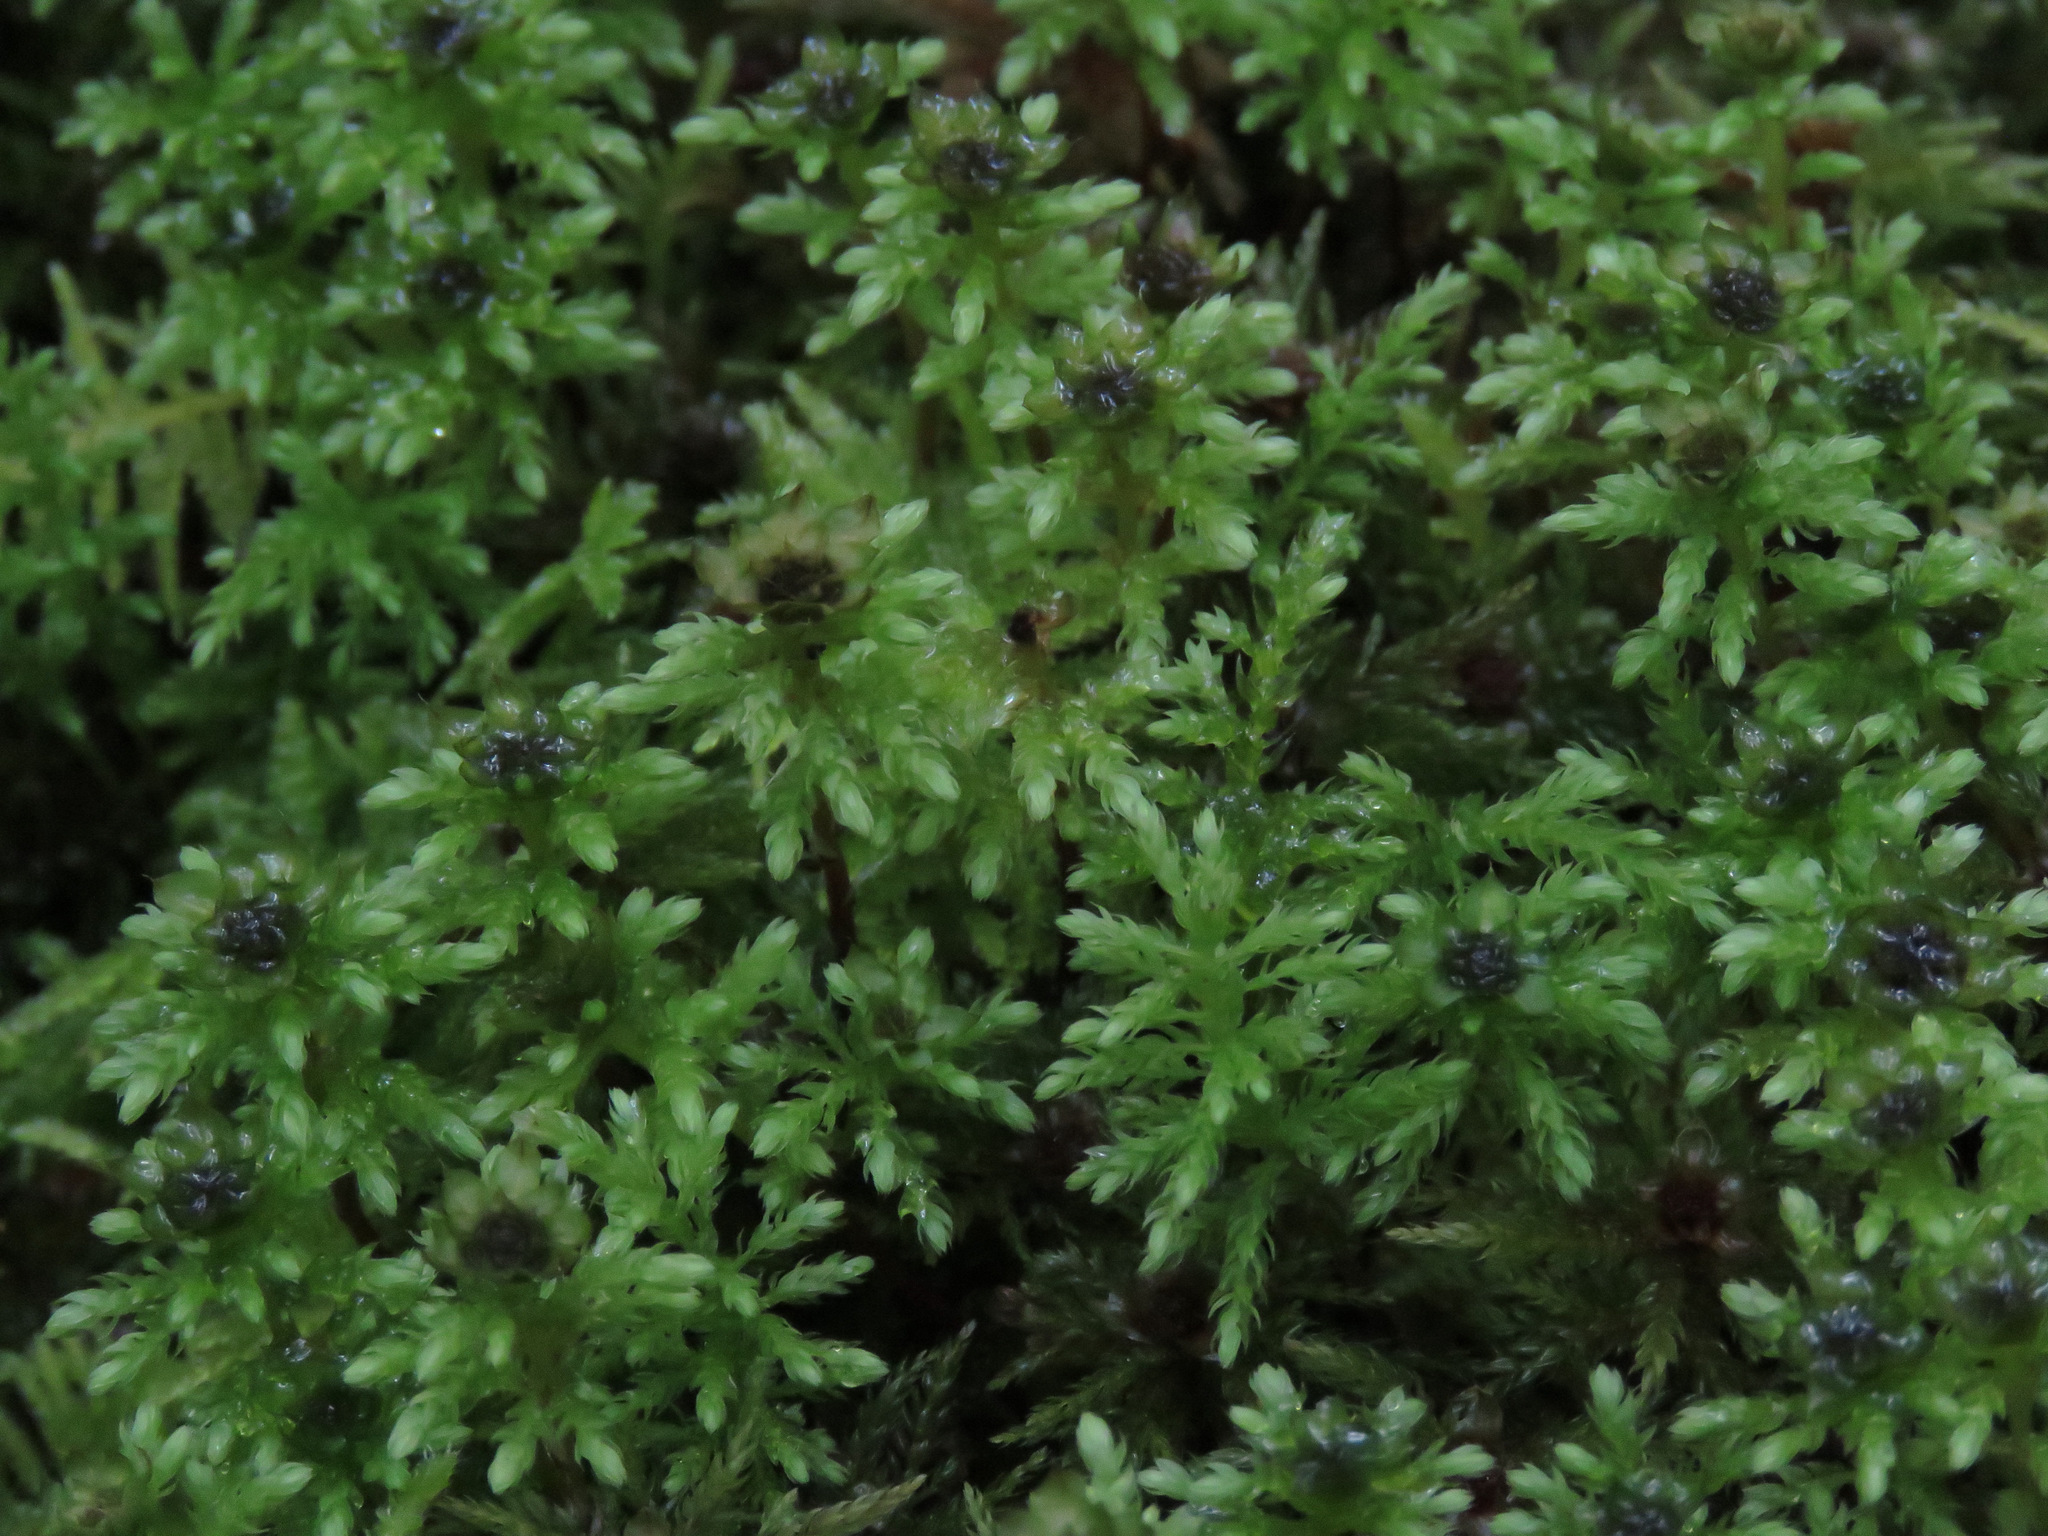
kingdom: Plantae
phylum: Bryophyta
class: Bryopsida
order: Bryales
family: Mniaceae
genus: Leucolepis
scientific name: Leucolepis acanthoneura
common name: Leucolepis umbrella moss
